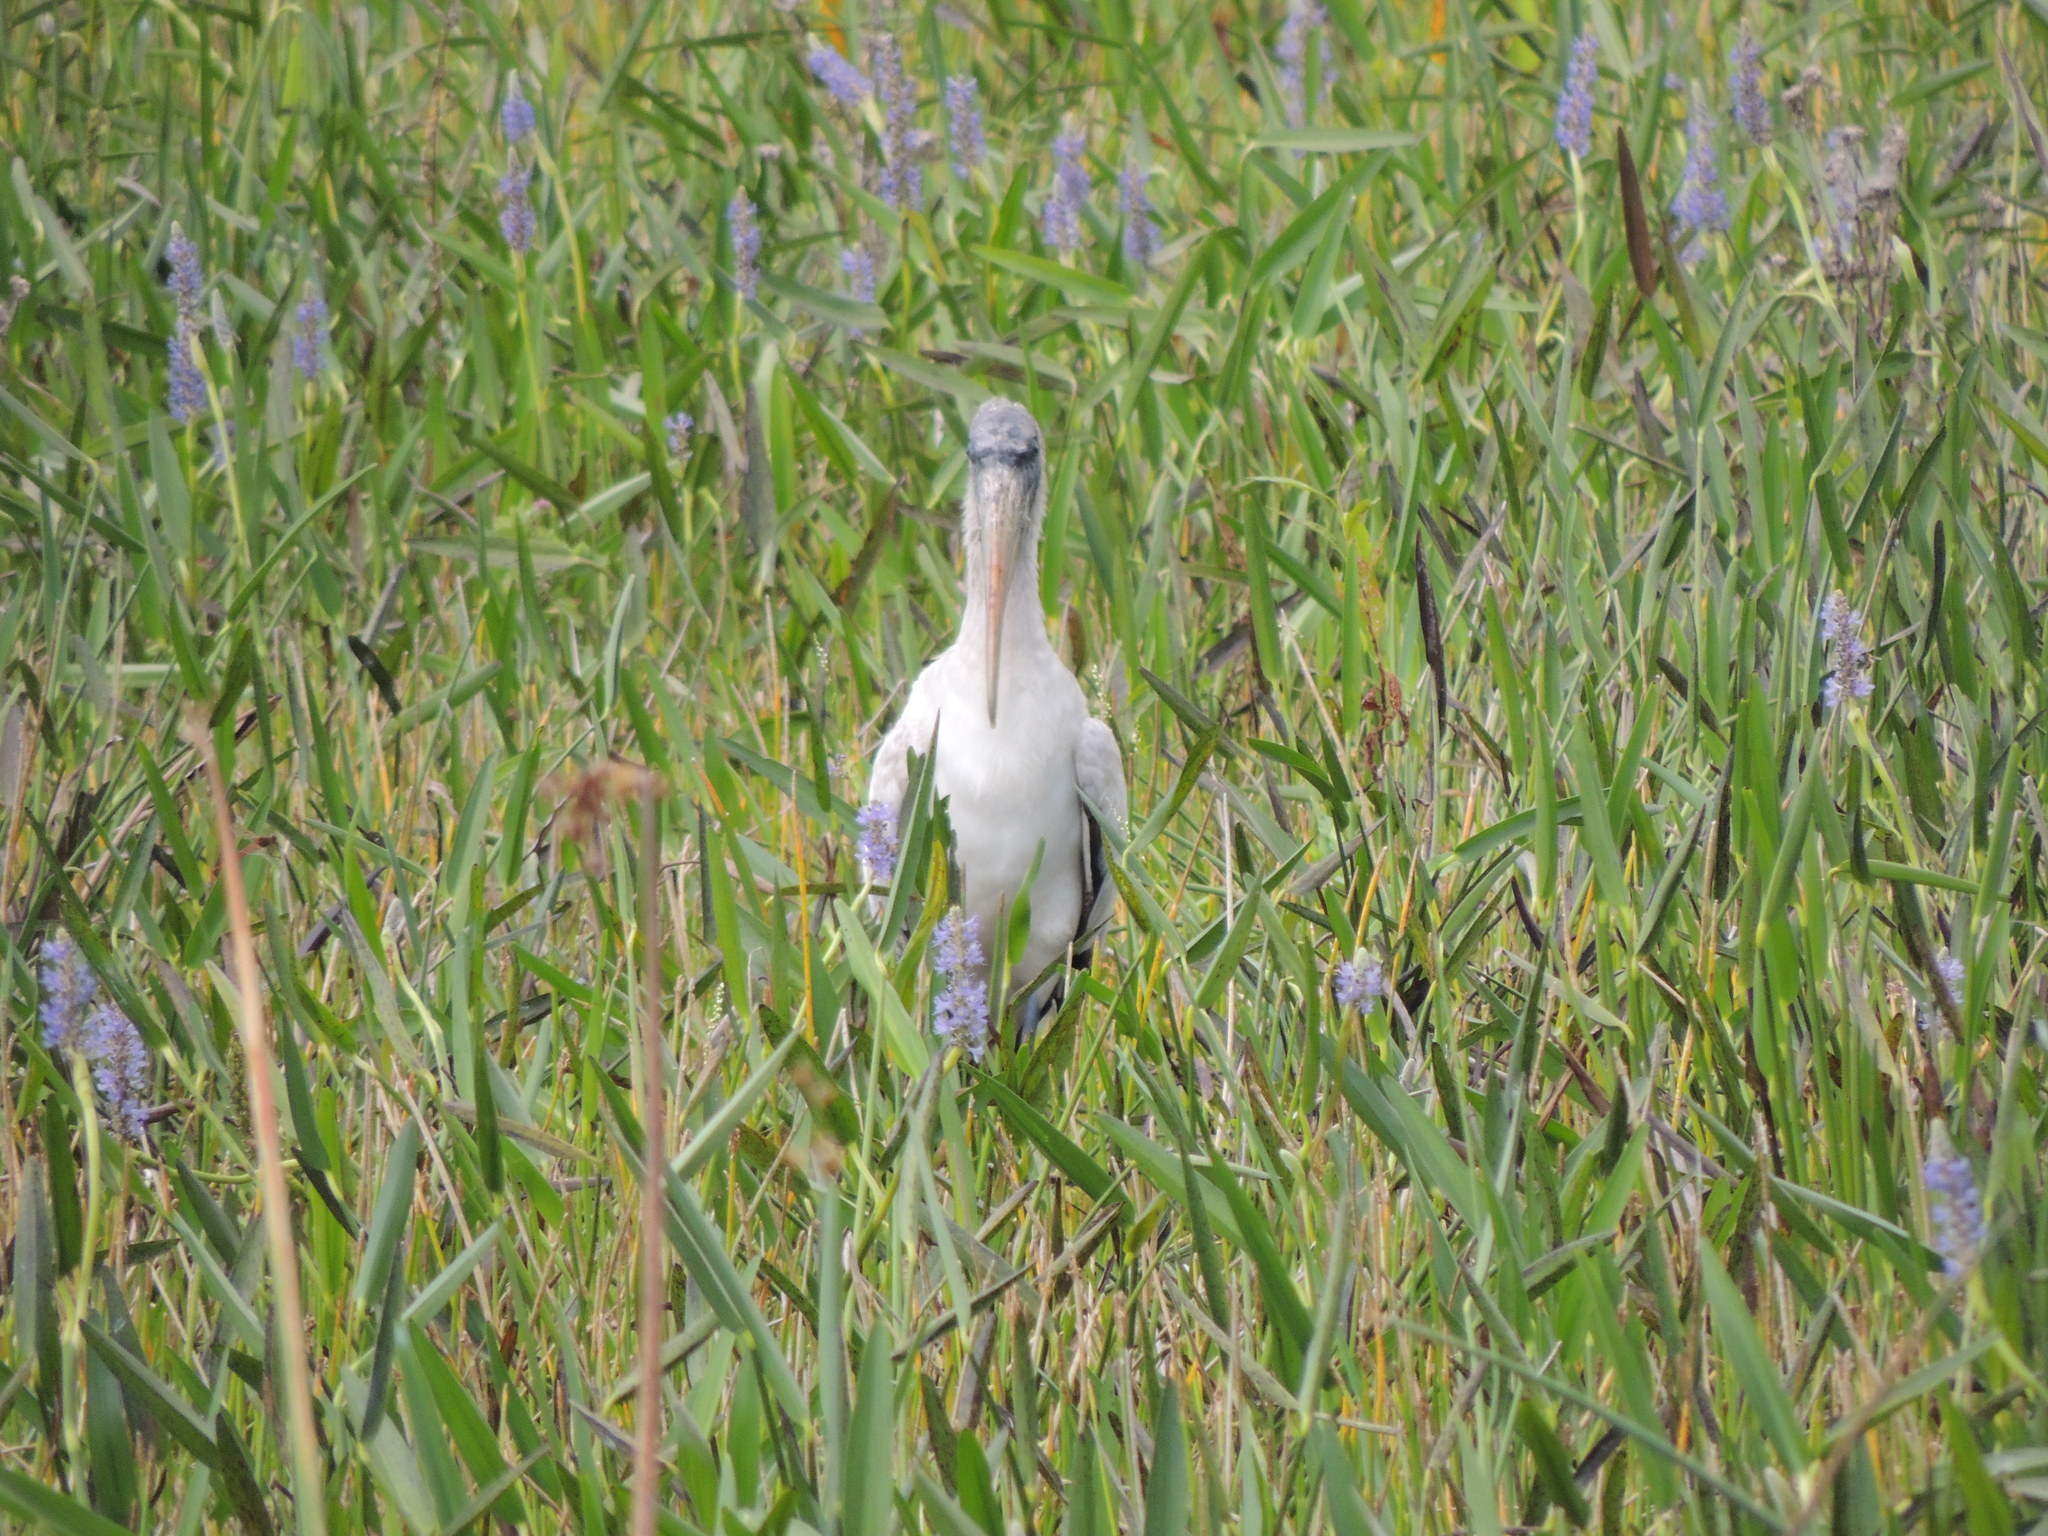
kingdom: Animalia
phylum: Chordata
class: Aves
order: Ciconiiformes
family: Ciconiidae
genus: Mycteria
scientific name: Mycteria americana
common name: Wood stork
